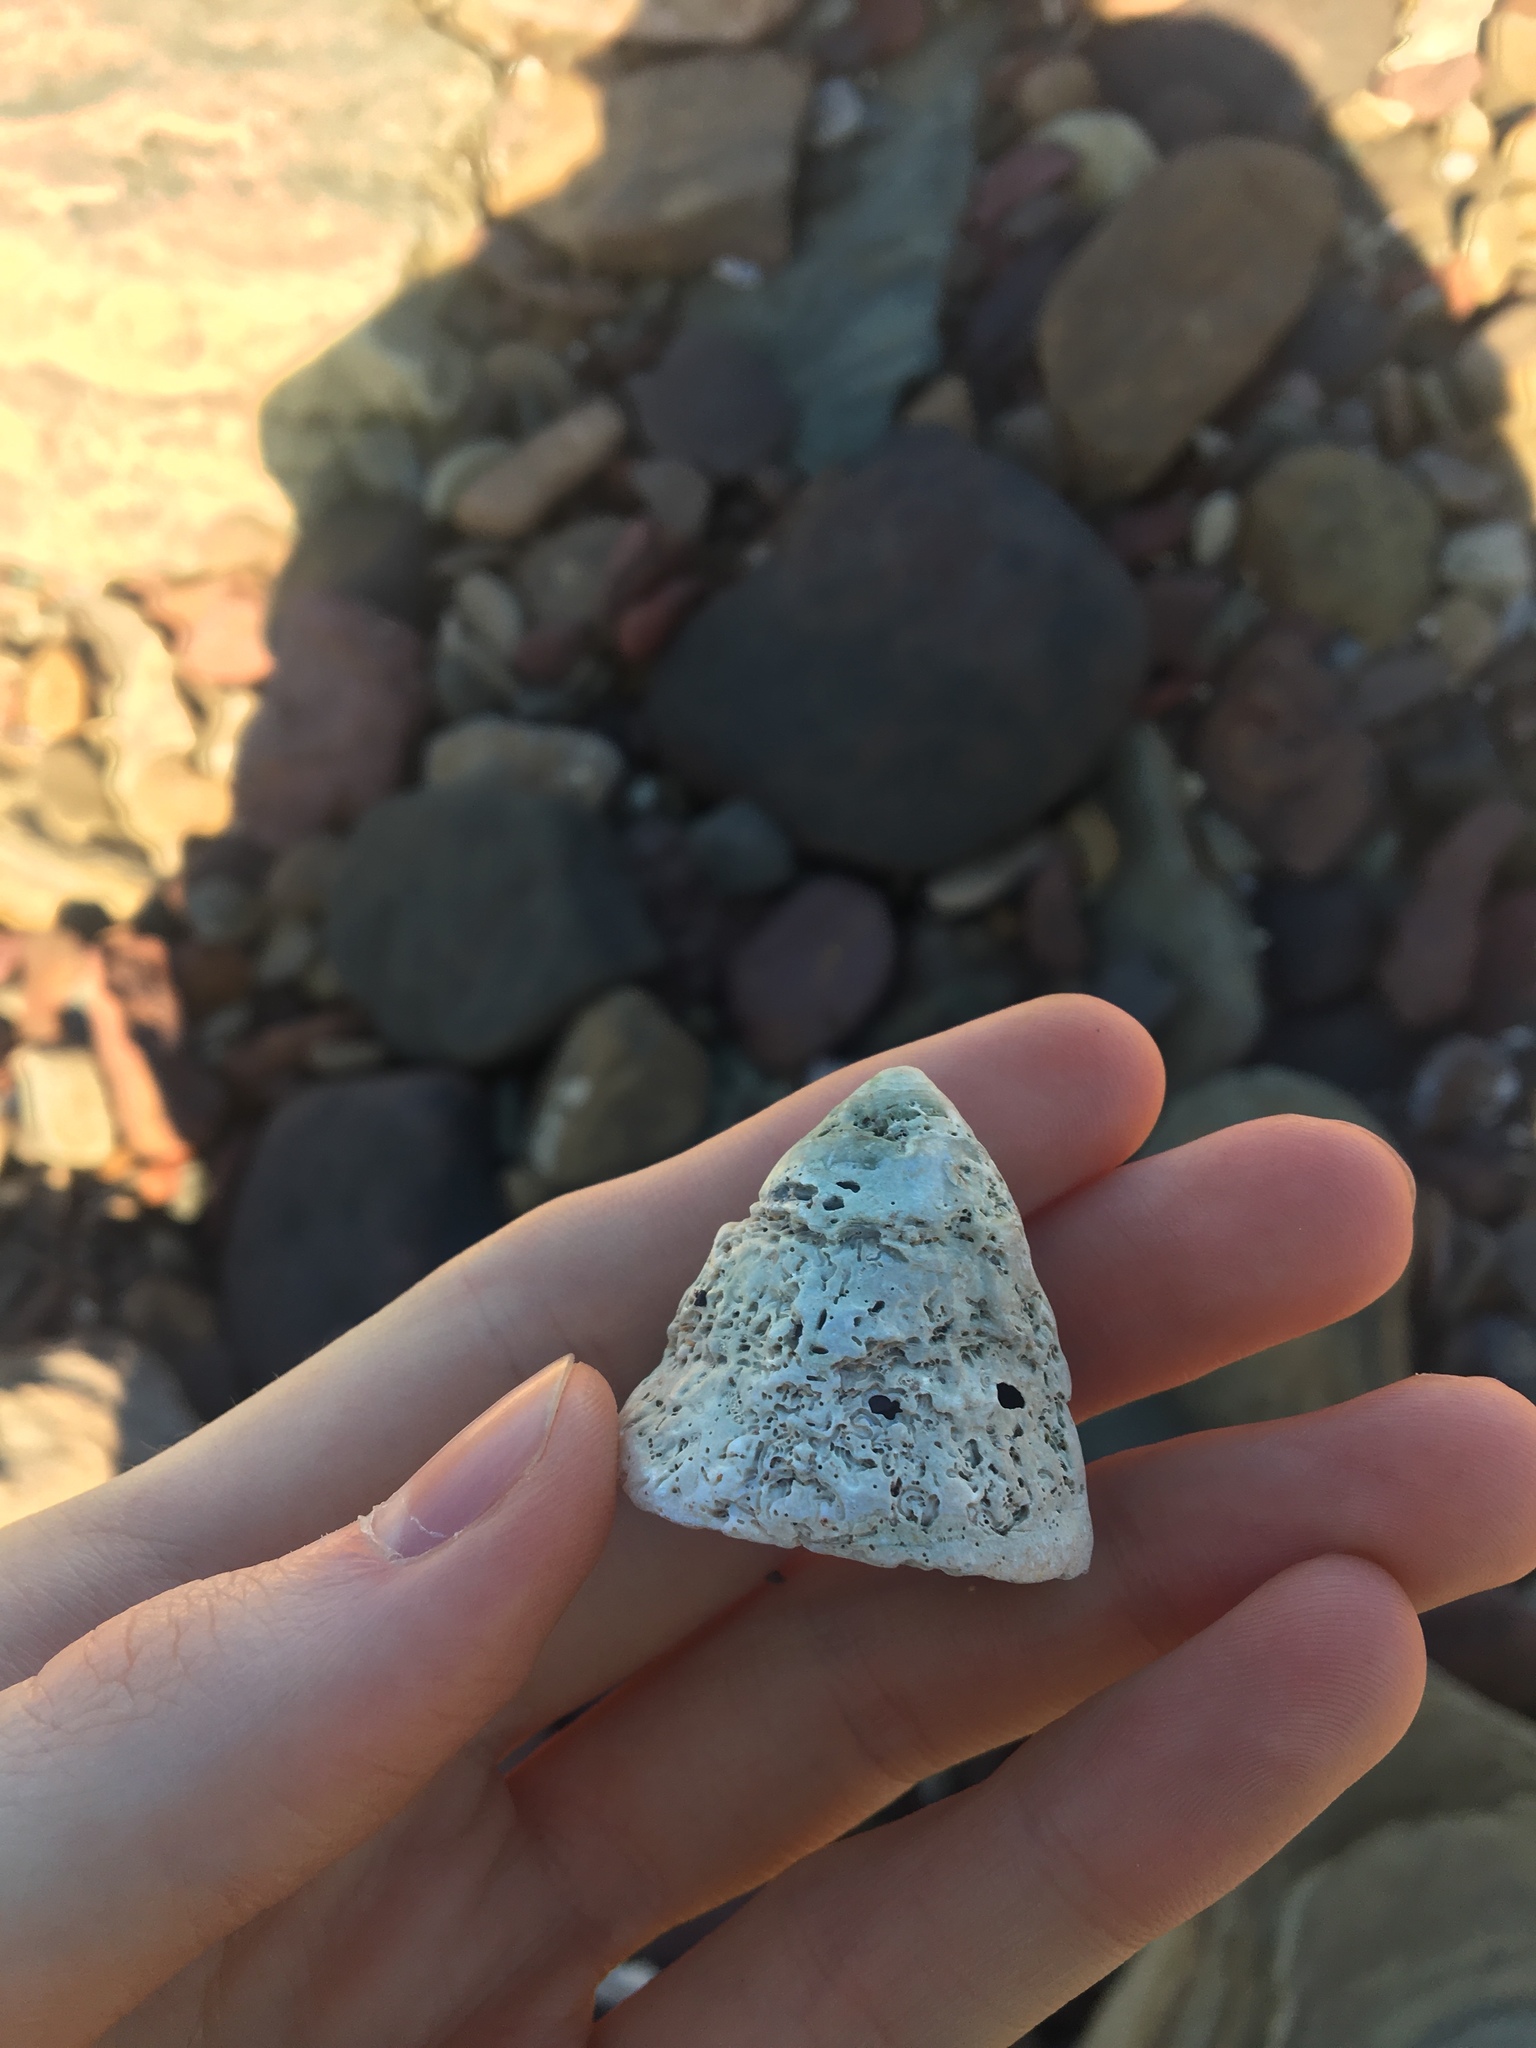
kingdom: Animalia
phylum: Mollusca
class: Gastropoda
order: Trochida
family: Turbinidae
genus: Astralium
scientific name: Astralium tentoriiforme
